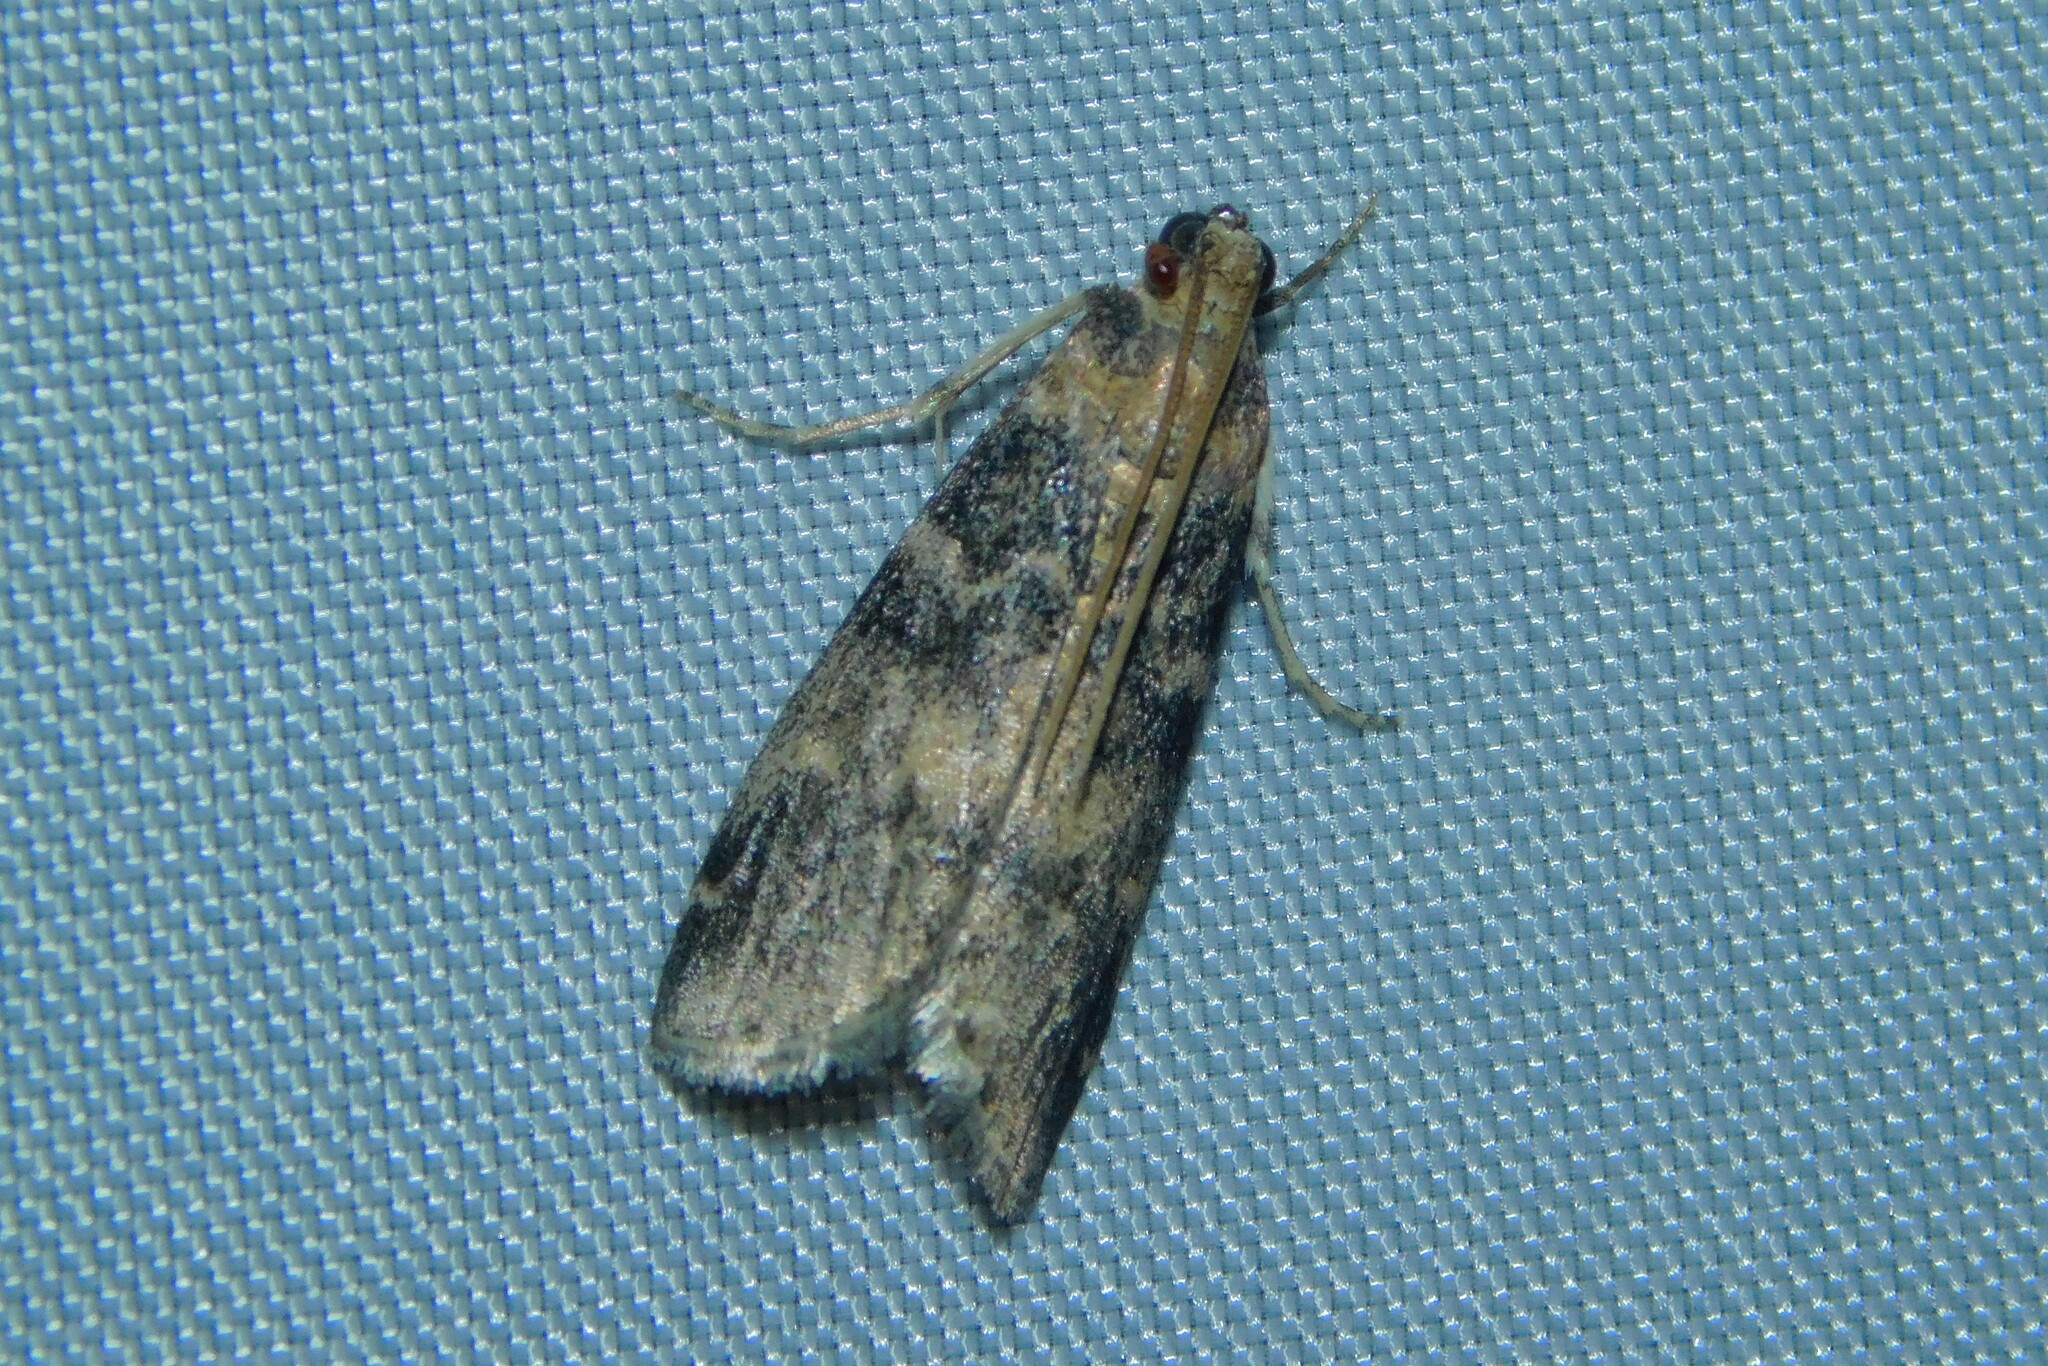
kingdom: Animalia
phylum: Arthropoda
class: Insecta
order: Lepidoptera
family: Pyralidae
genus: Euzophera
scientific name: Euzophera pinguis
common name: Ash-bark knot-horn
